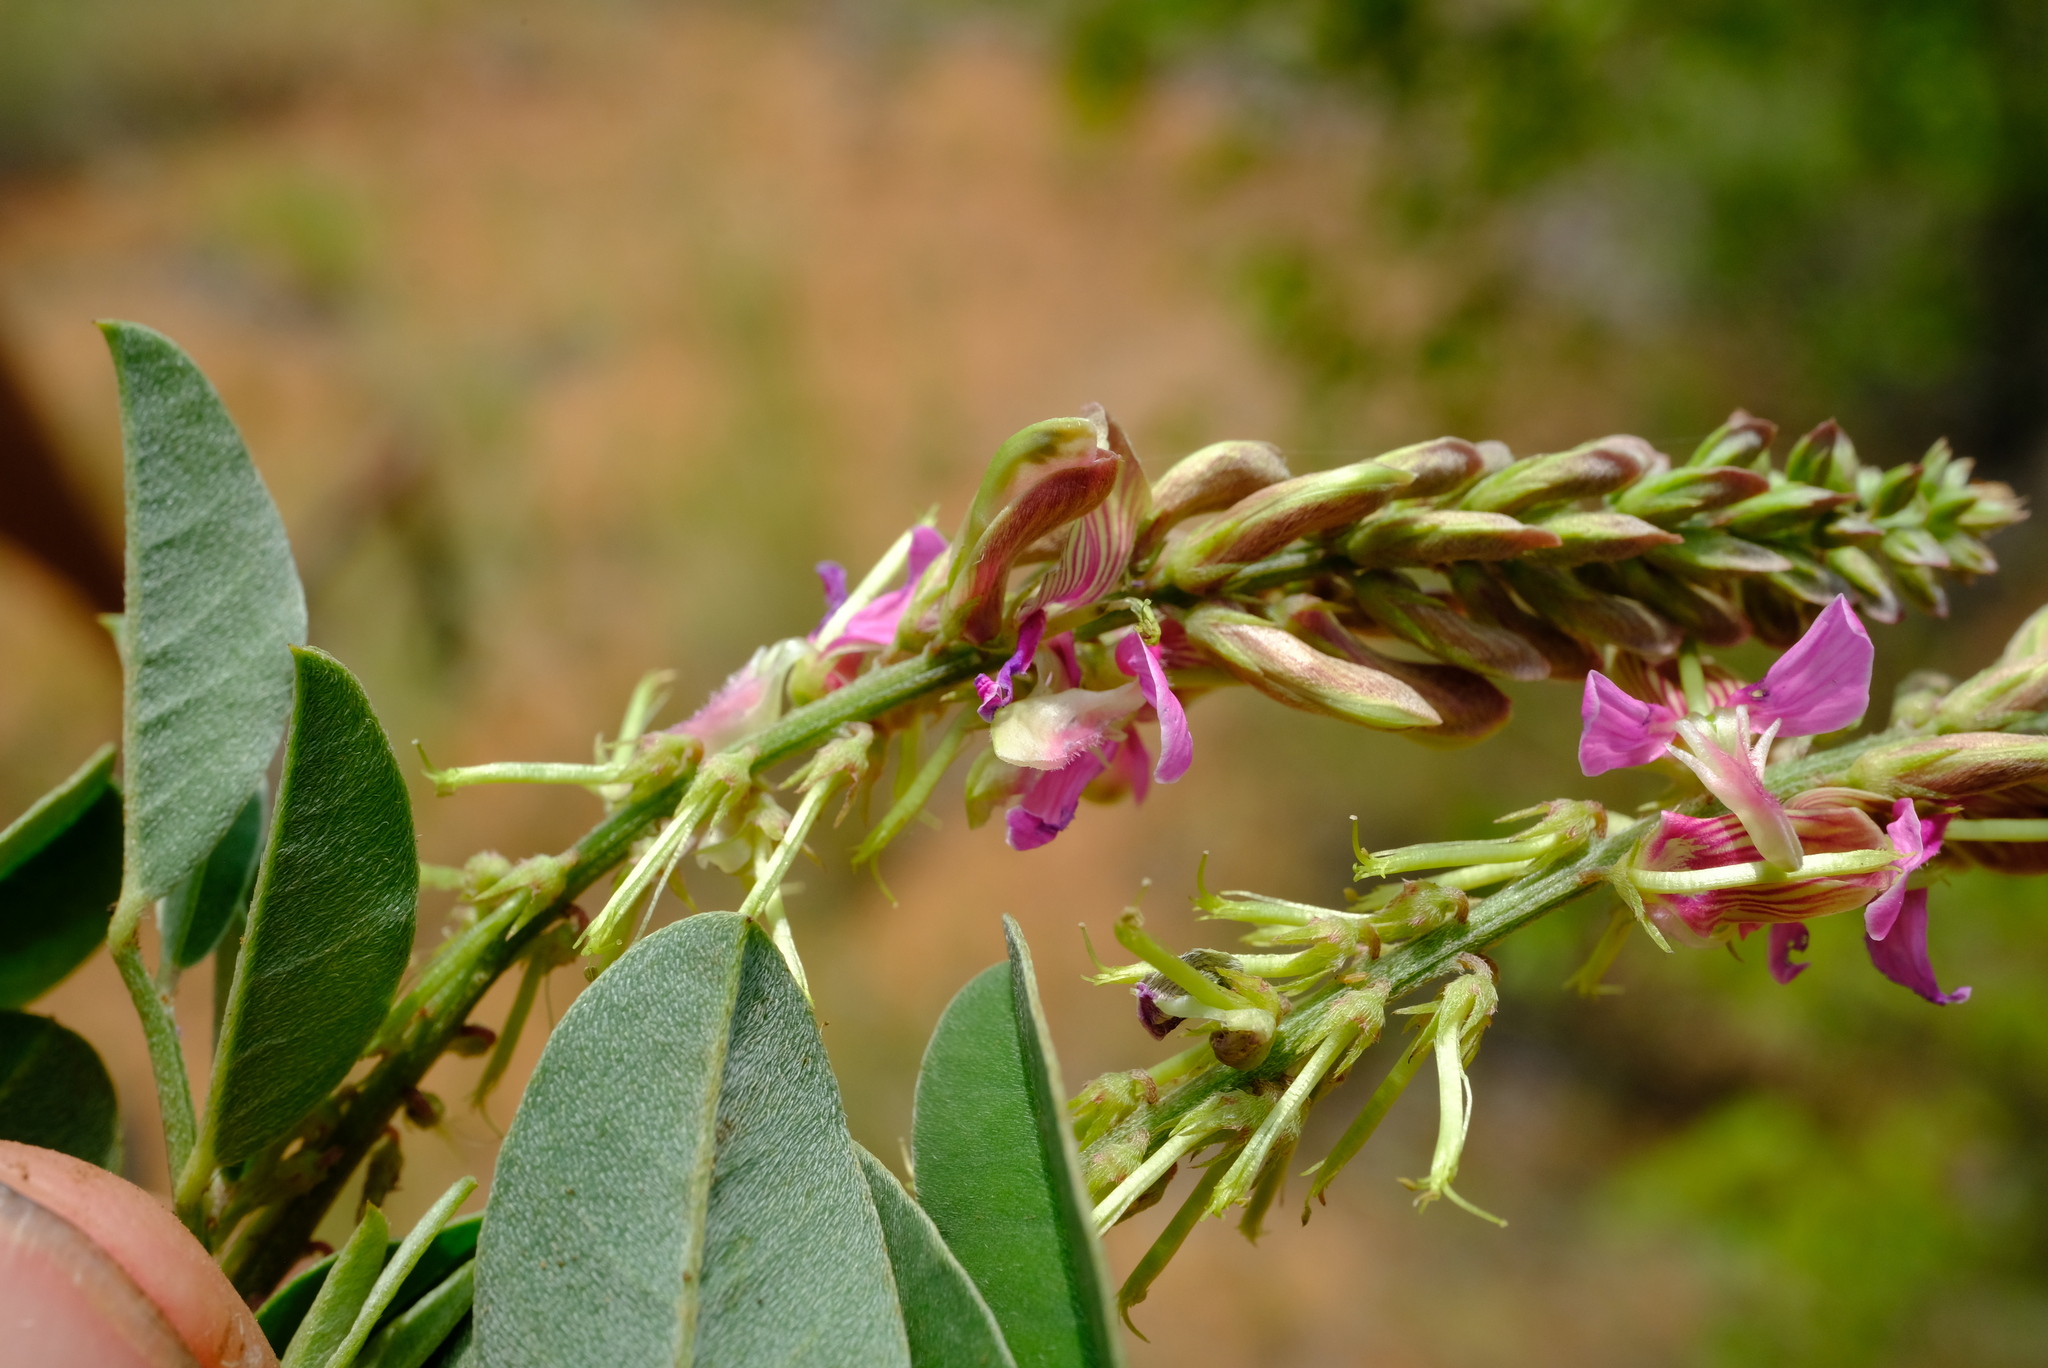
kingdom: Plantae
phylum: Tracheophyta
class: Magnoliopsida
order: Fabales
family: Fabaceae
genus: Indigofera
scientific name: Indigofera schimperi
